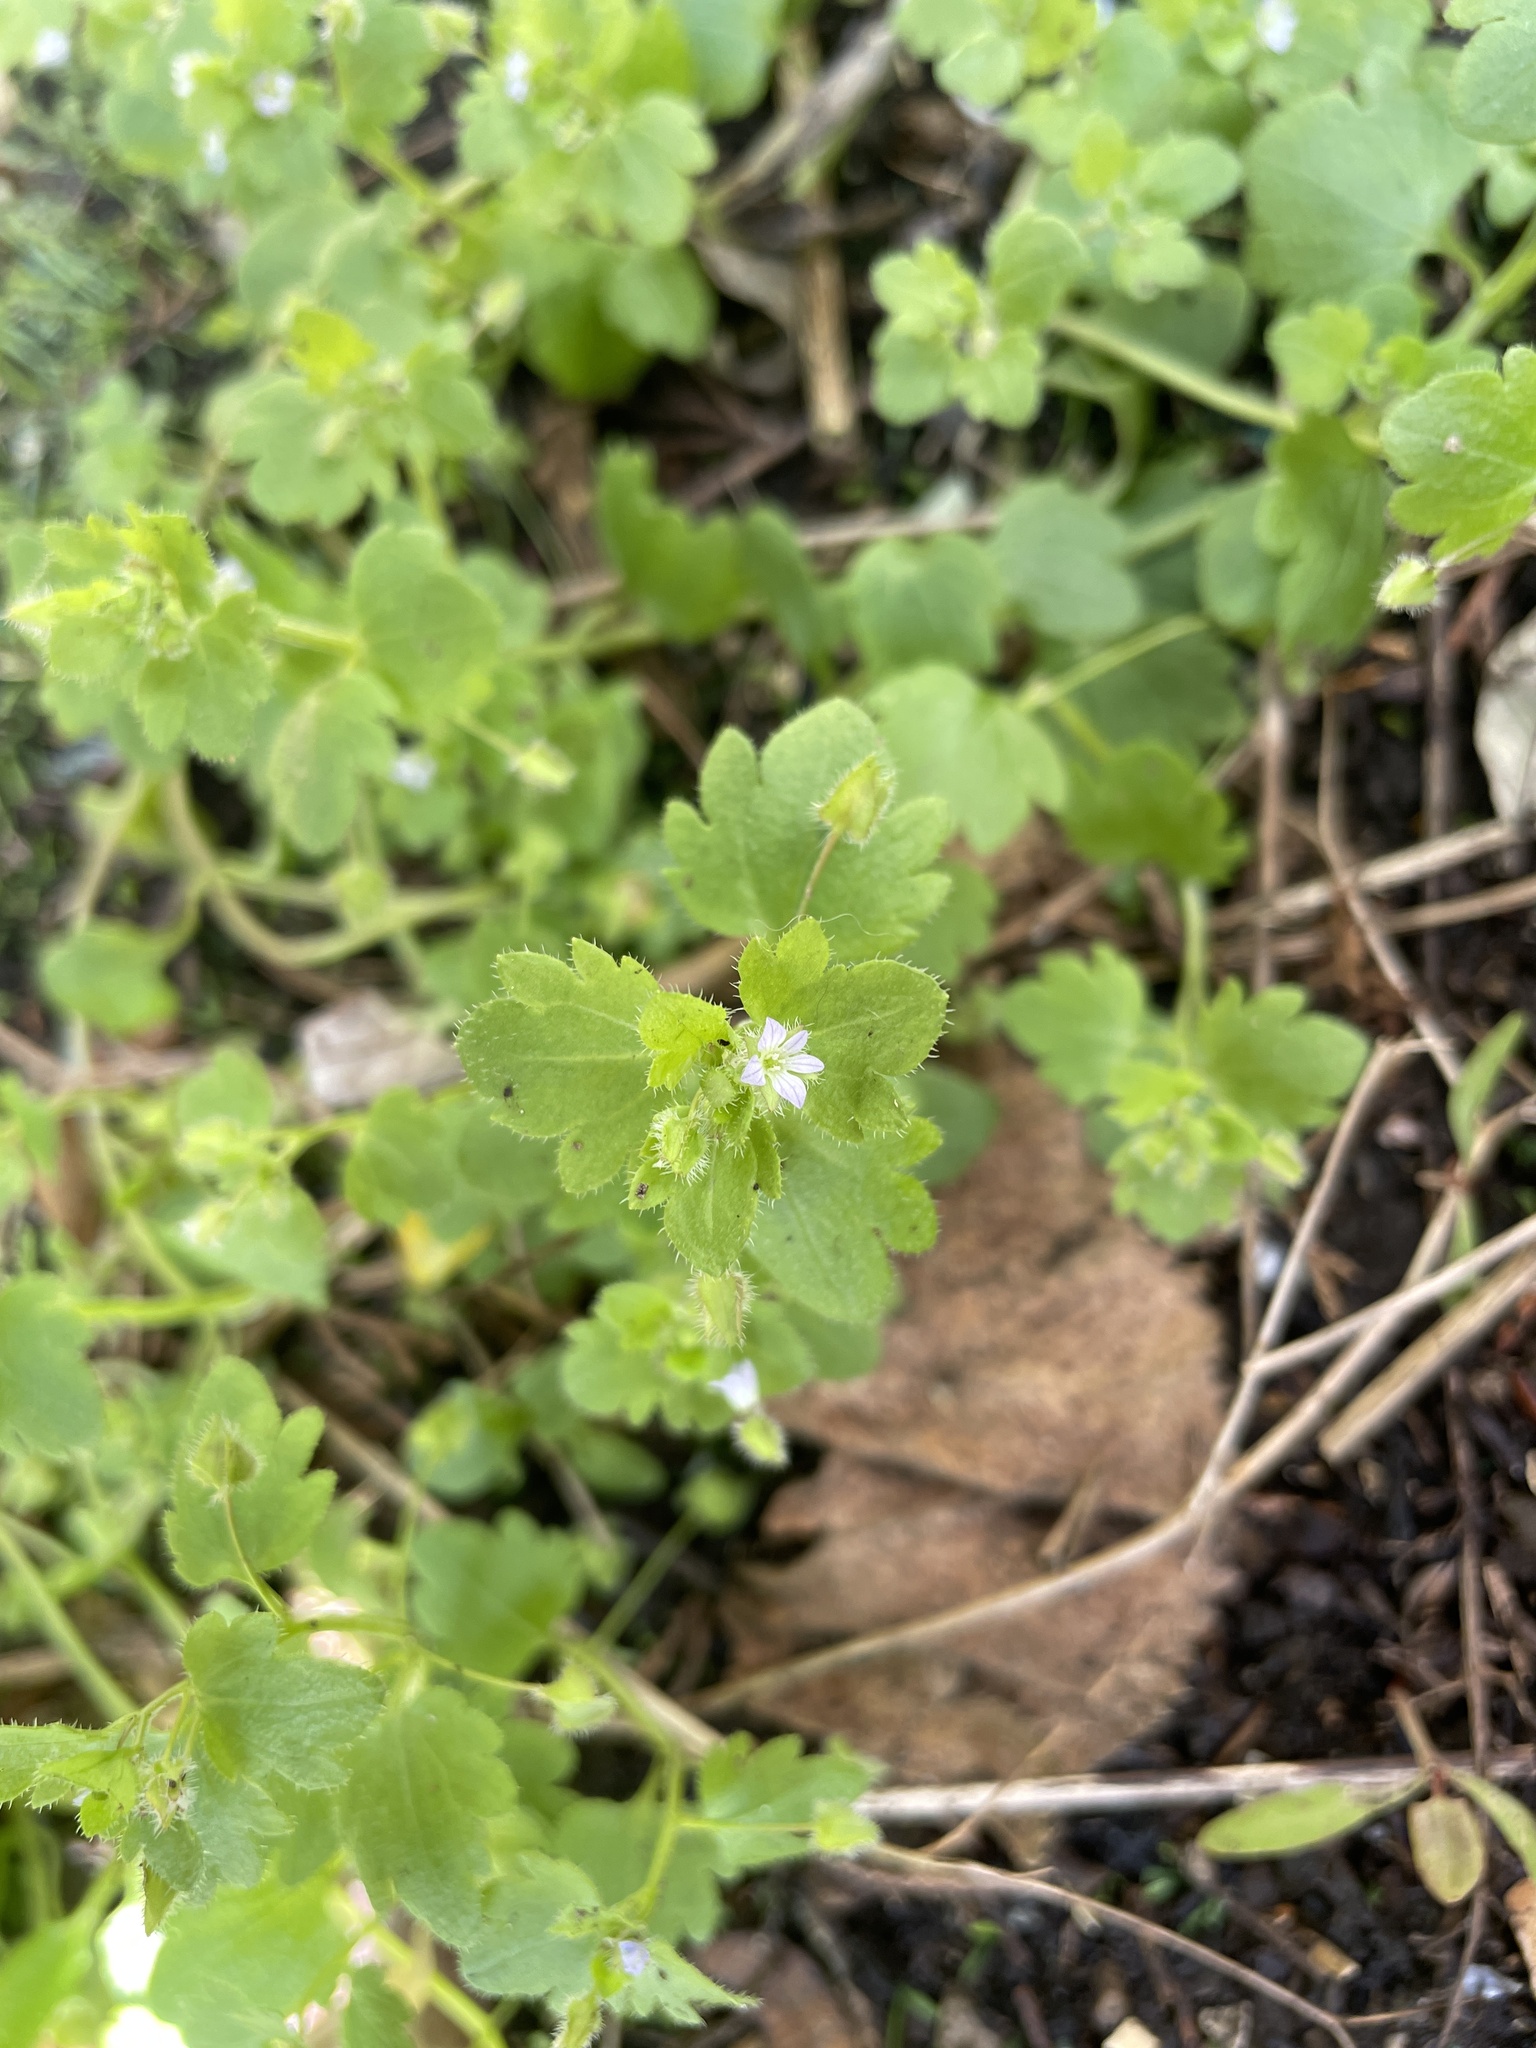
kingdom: Plantae
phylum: Tracheophyta
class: Magnoliopsida
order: Lamiales
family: Plantaginaceae
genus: Veronica
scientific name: Veronica sublobata
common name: False ivy-leaved speedwell
